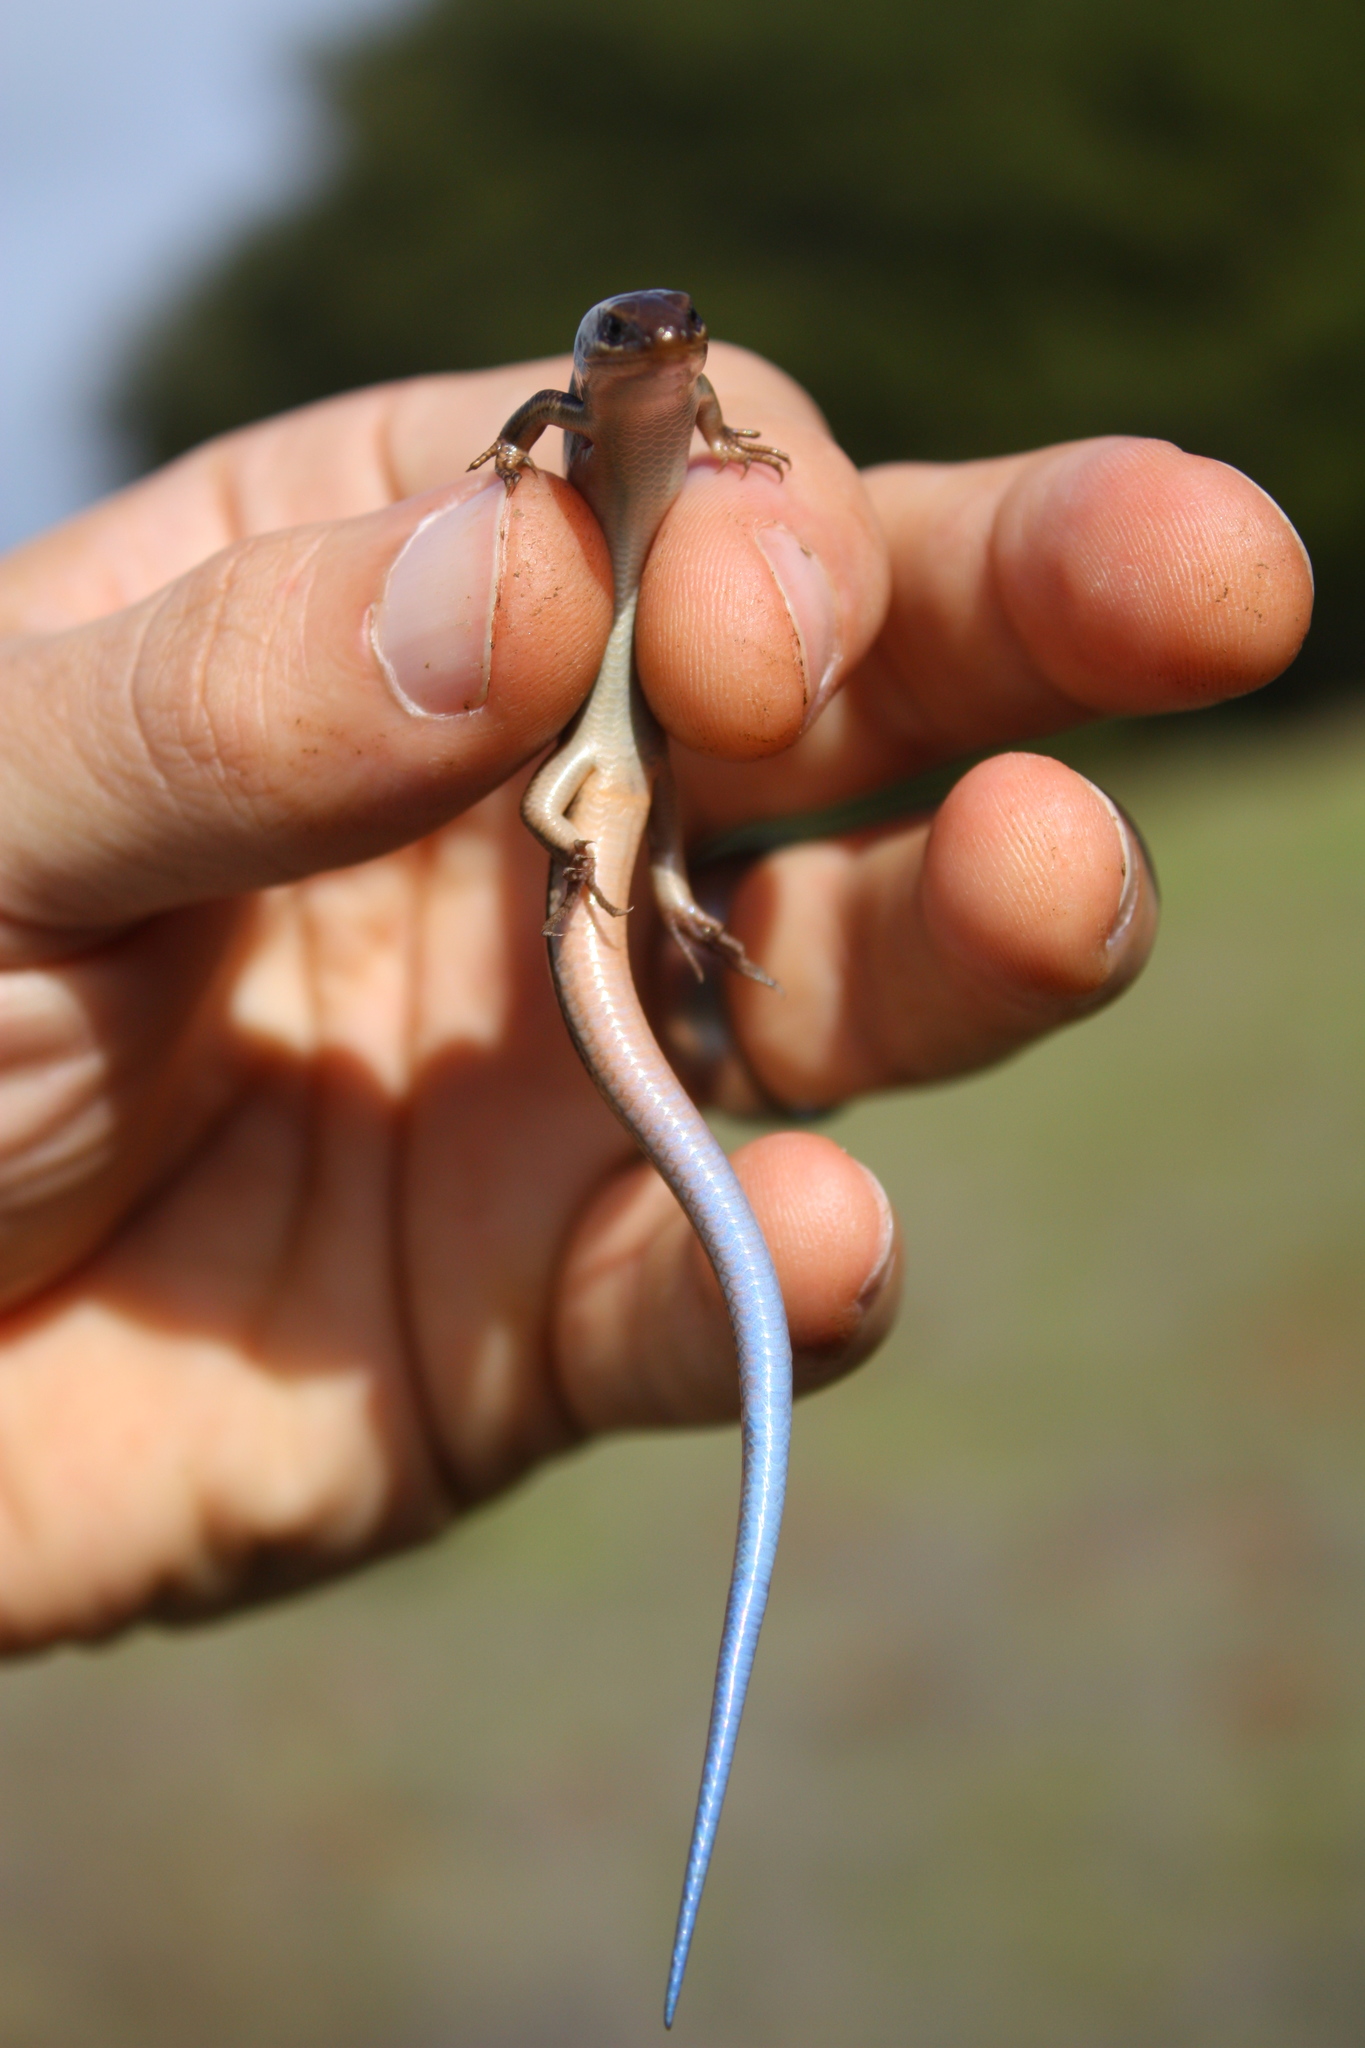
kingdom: Animalia
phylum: Chordata
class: Squamata
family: Scincidae
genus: Plestiodon
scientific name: Plestiodon skiltonianus
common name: Coronado island skink [interparietalis]
